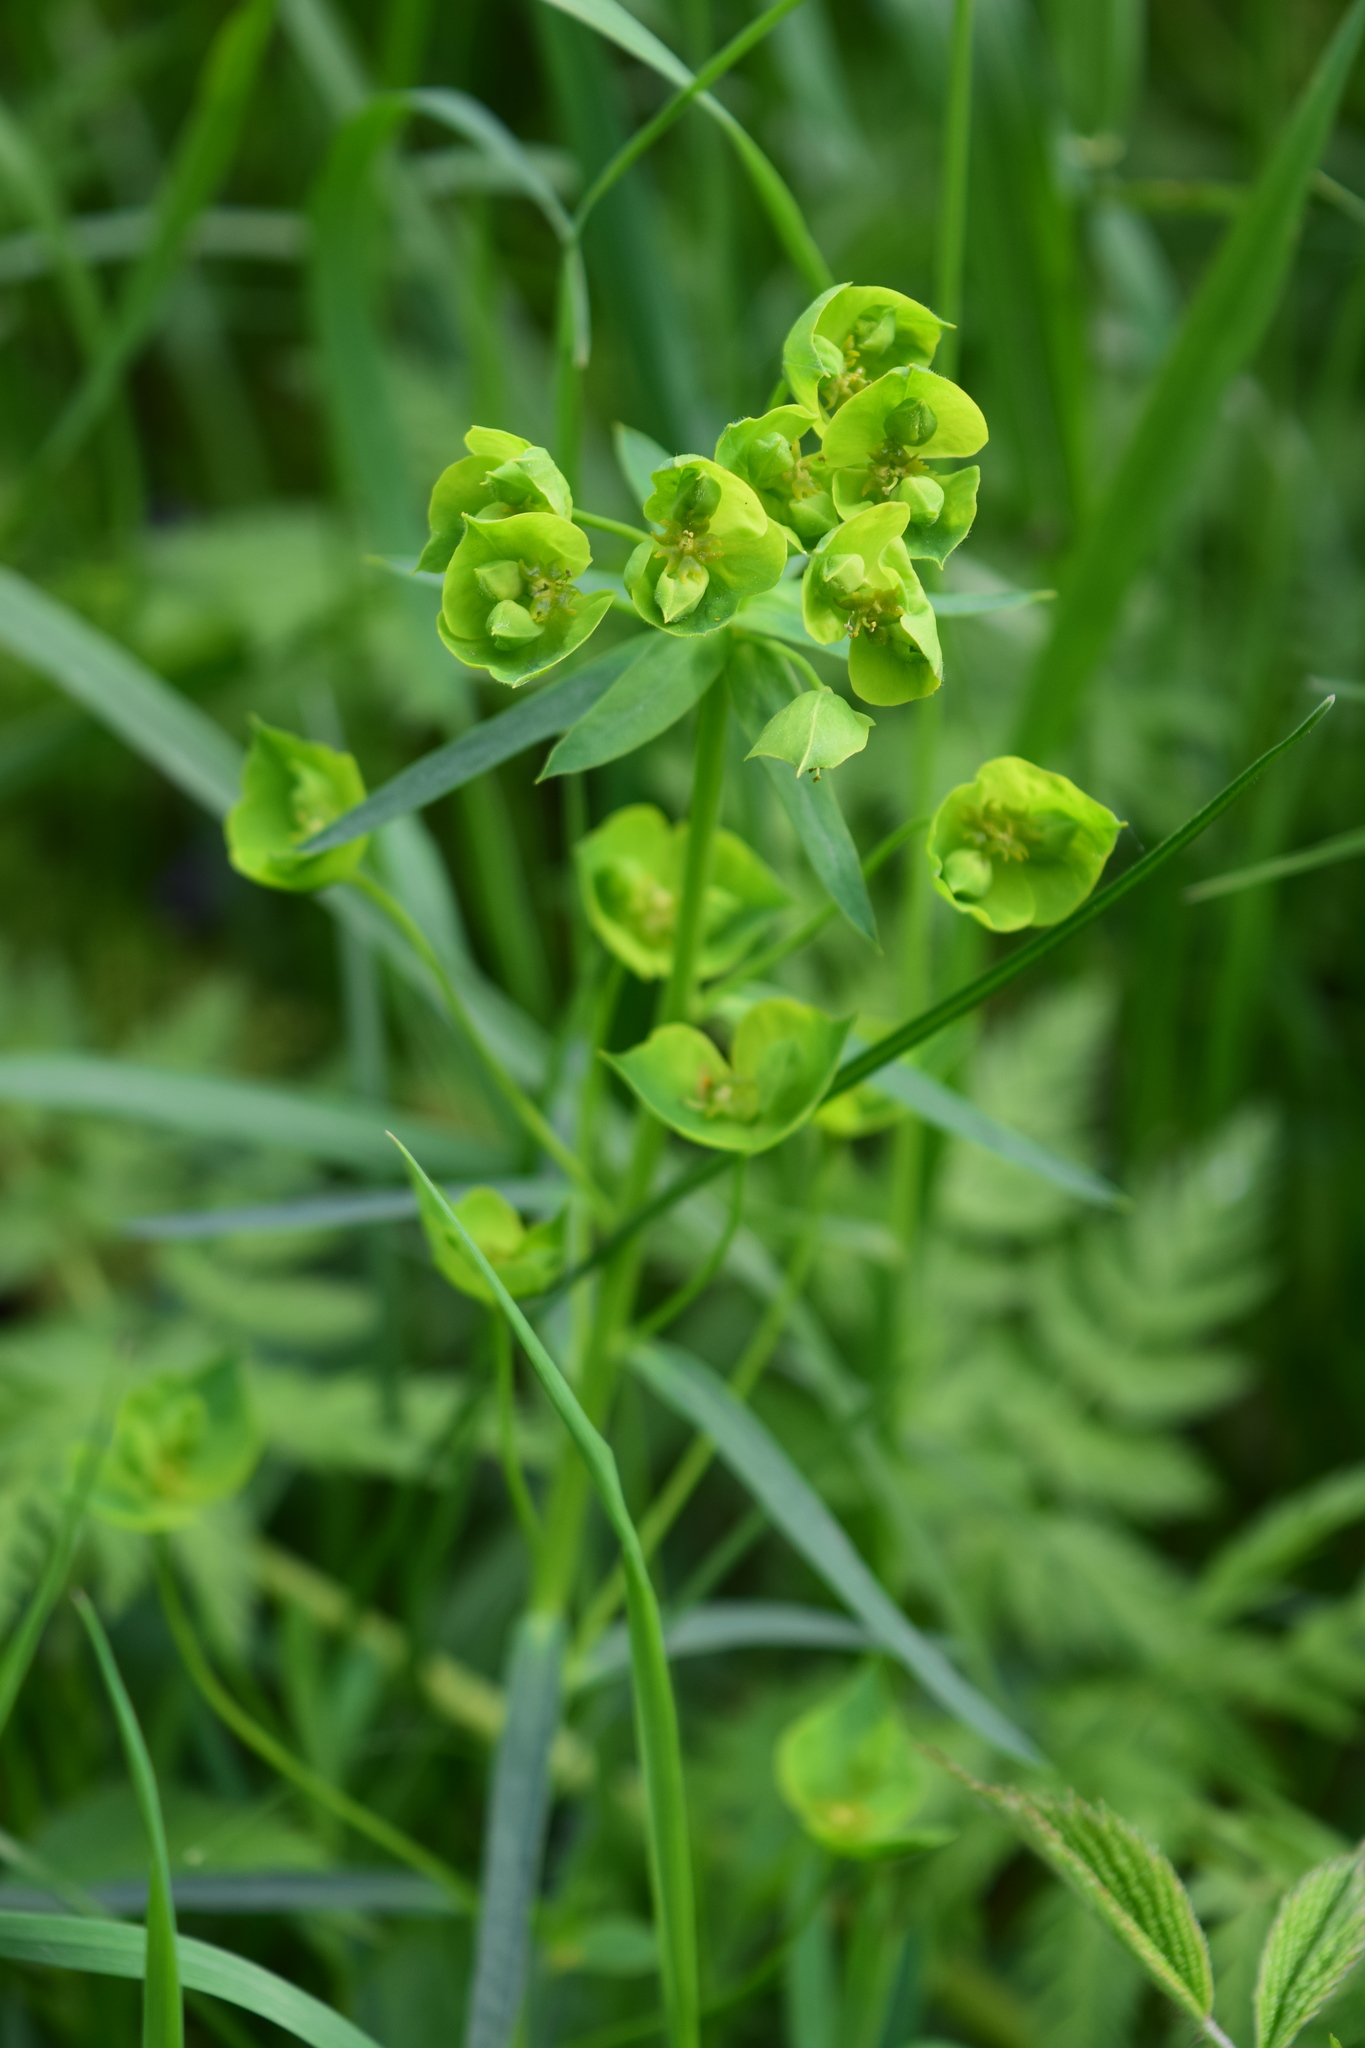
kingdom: Plantae
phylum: Tracheophyta
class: Magnoliopsida
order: Malpighiales
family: Euphorbiaceae
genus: Euphorbia
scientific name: Euphorbia virgata
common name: Leafy spurge
